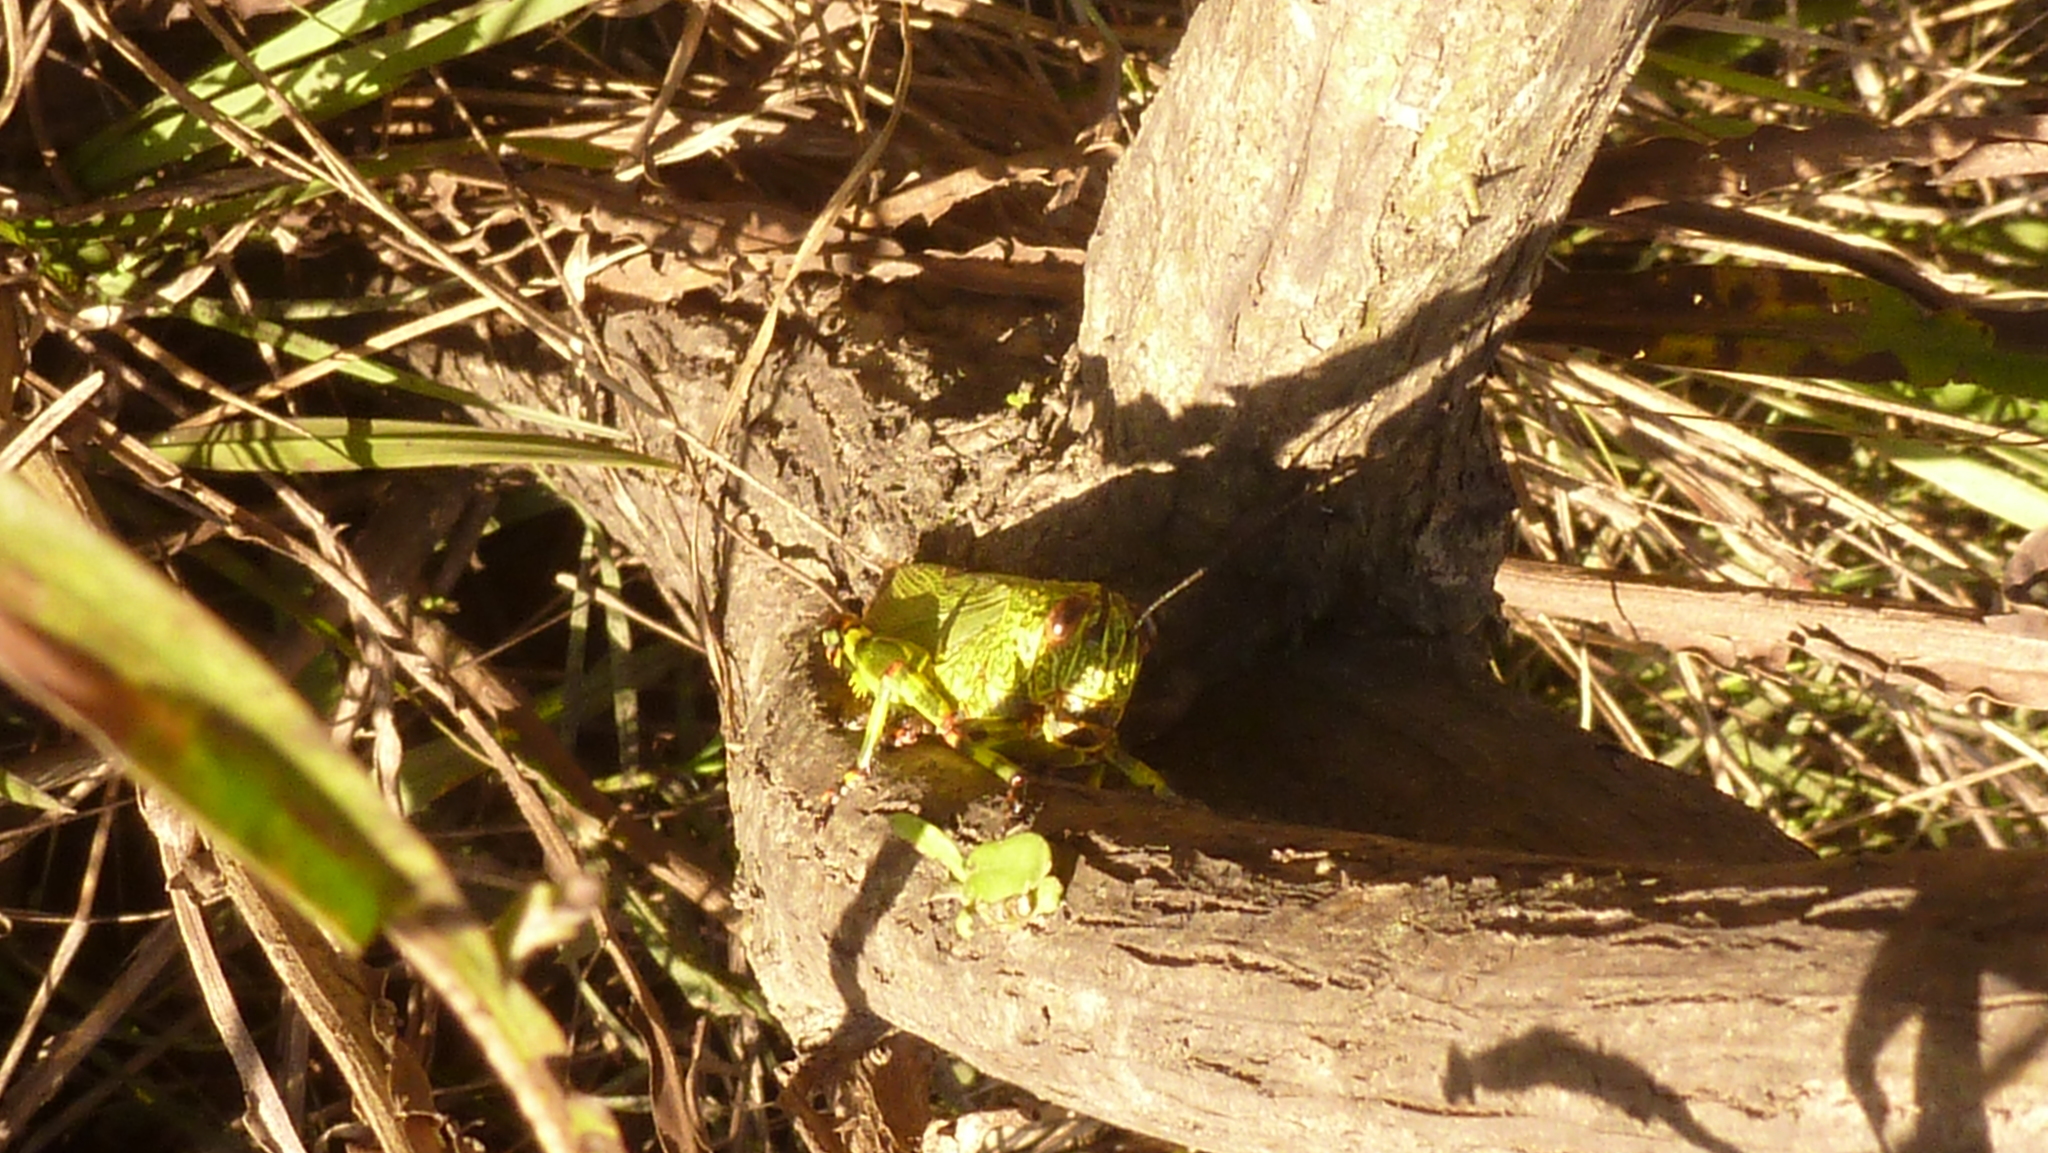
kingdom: Animalia
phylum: Arthropoda
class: Insecta
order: Orthoptera
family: Romaleidae
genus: Zoniopoda
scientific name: Zoniopoda tarsata
